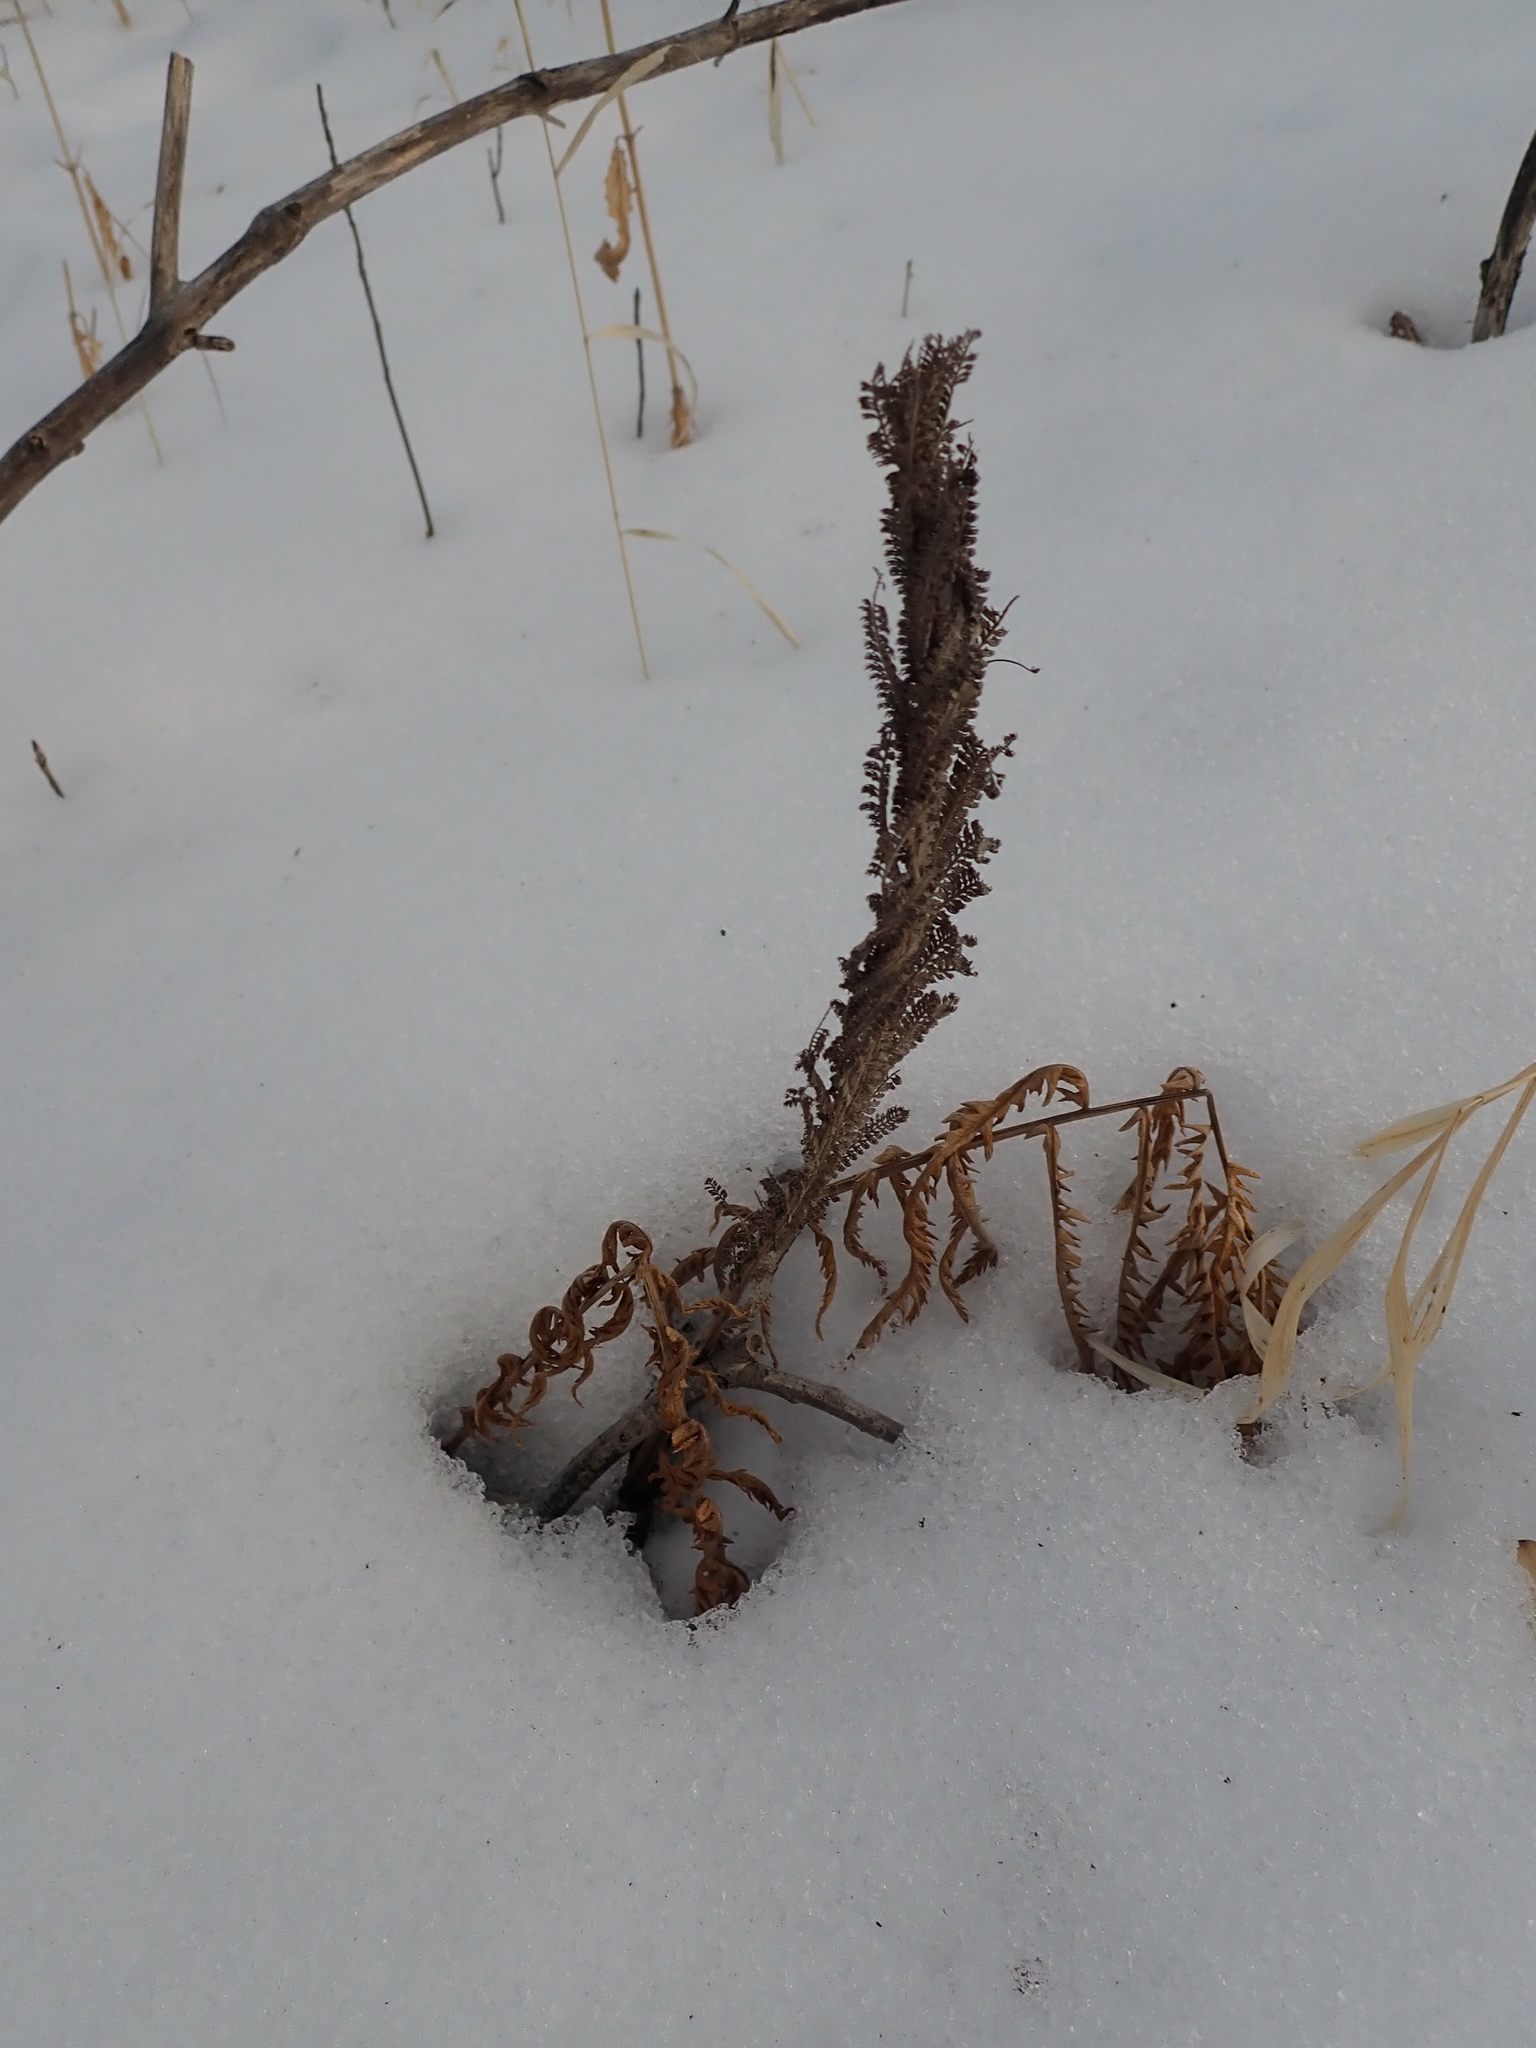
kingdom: Plantae
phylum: Tracheophyta
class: Polypodiopsida
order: Polypodiales
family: Onocleaceae
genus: Matteuccia
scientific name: Matteuccia struthiopteris
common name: Ostrich fern
